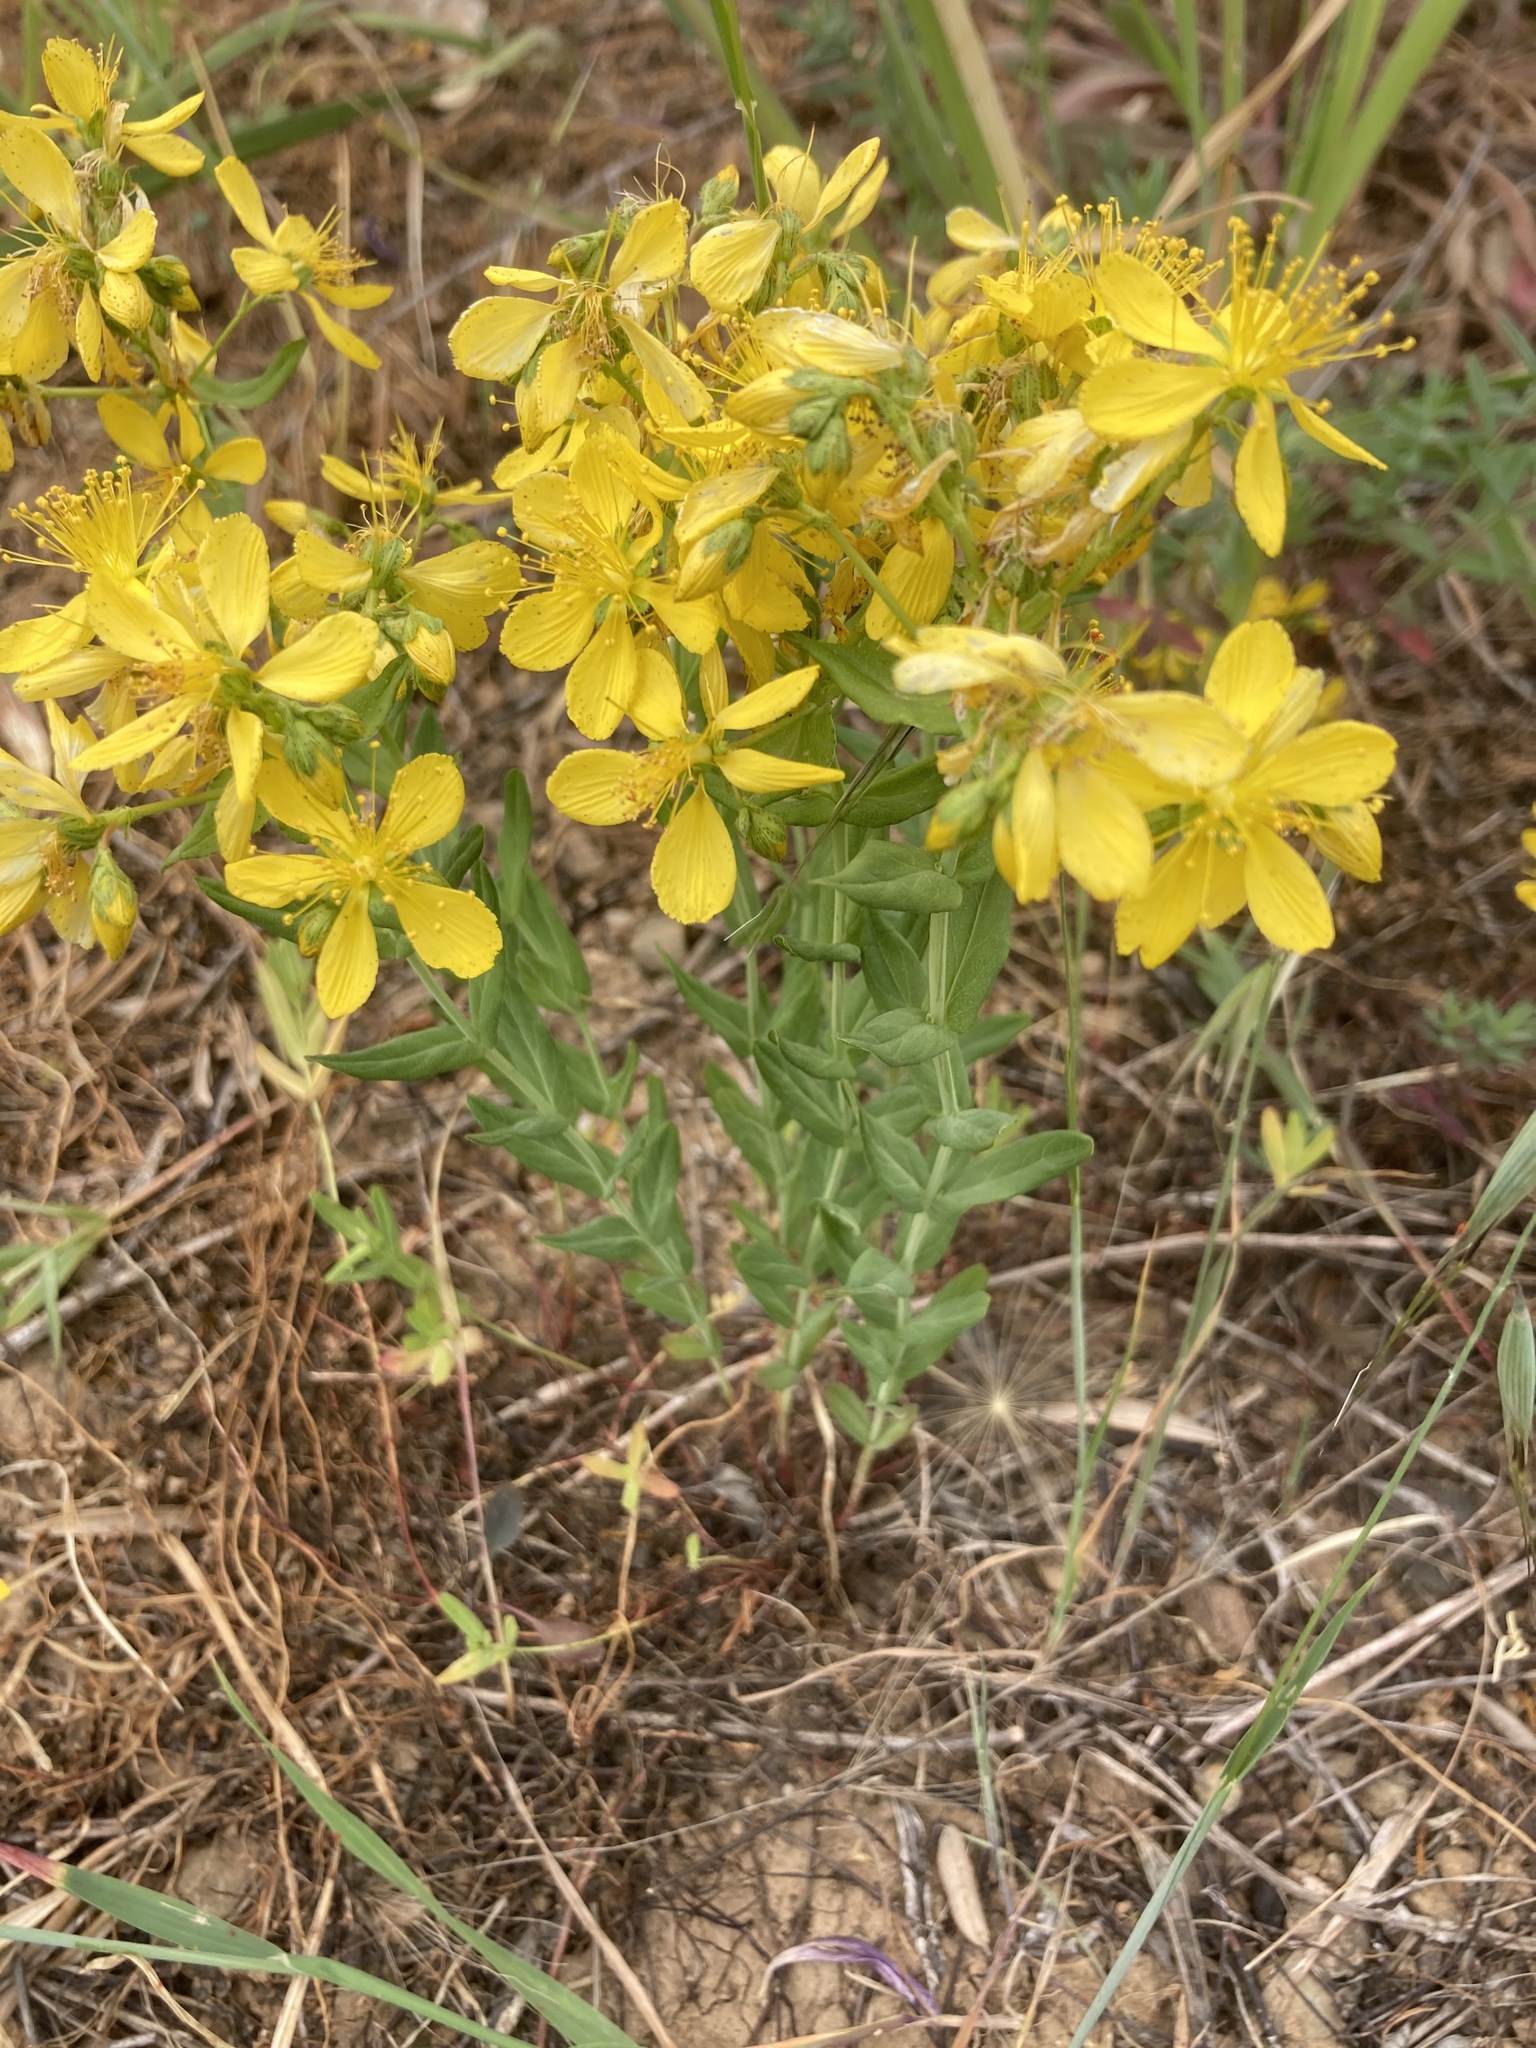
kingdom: Plantae
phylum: Tracheophyta
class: Magnoliopsida
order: Malpighiales
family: Hypericaceae
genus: Hypericum
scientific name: Hypericum perfoliatum
